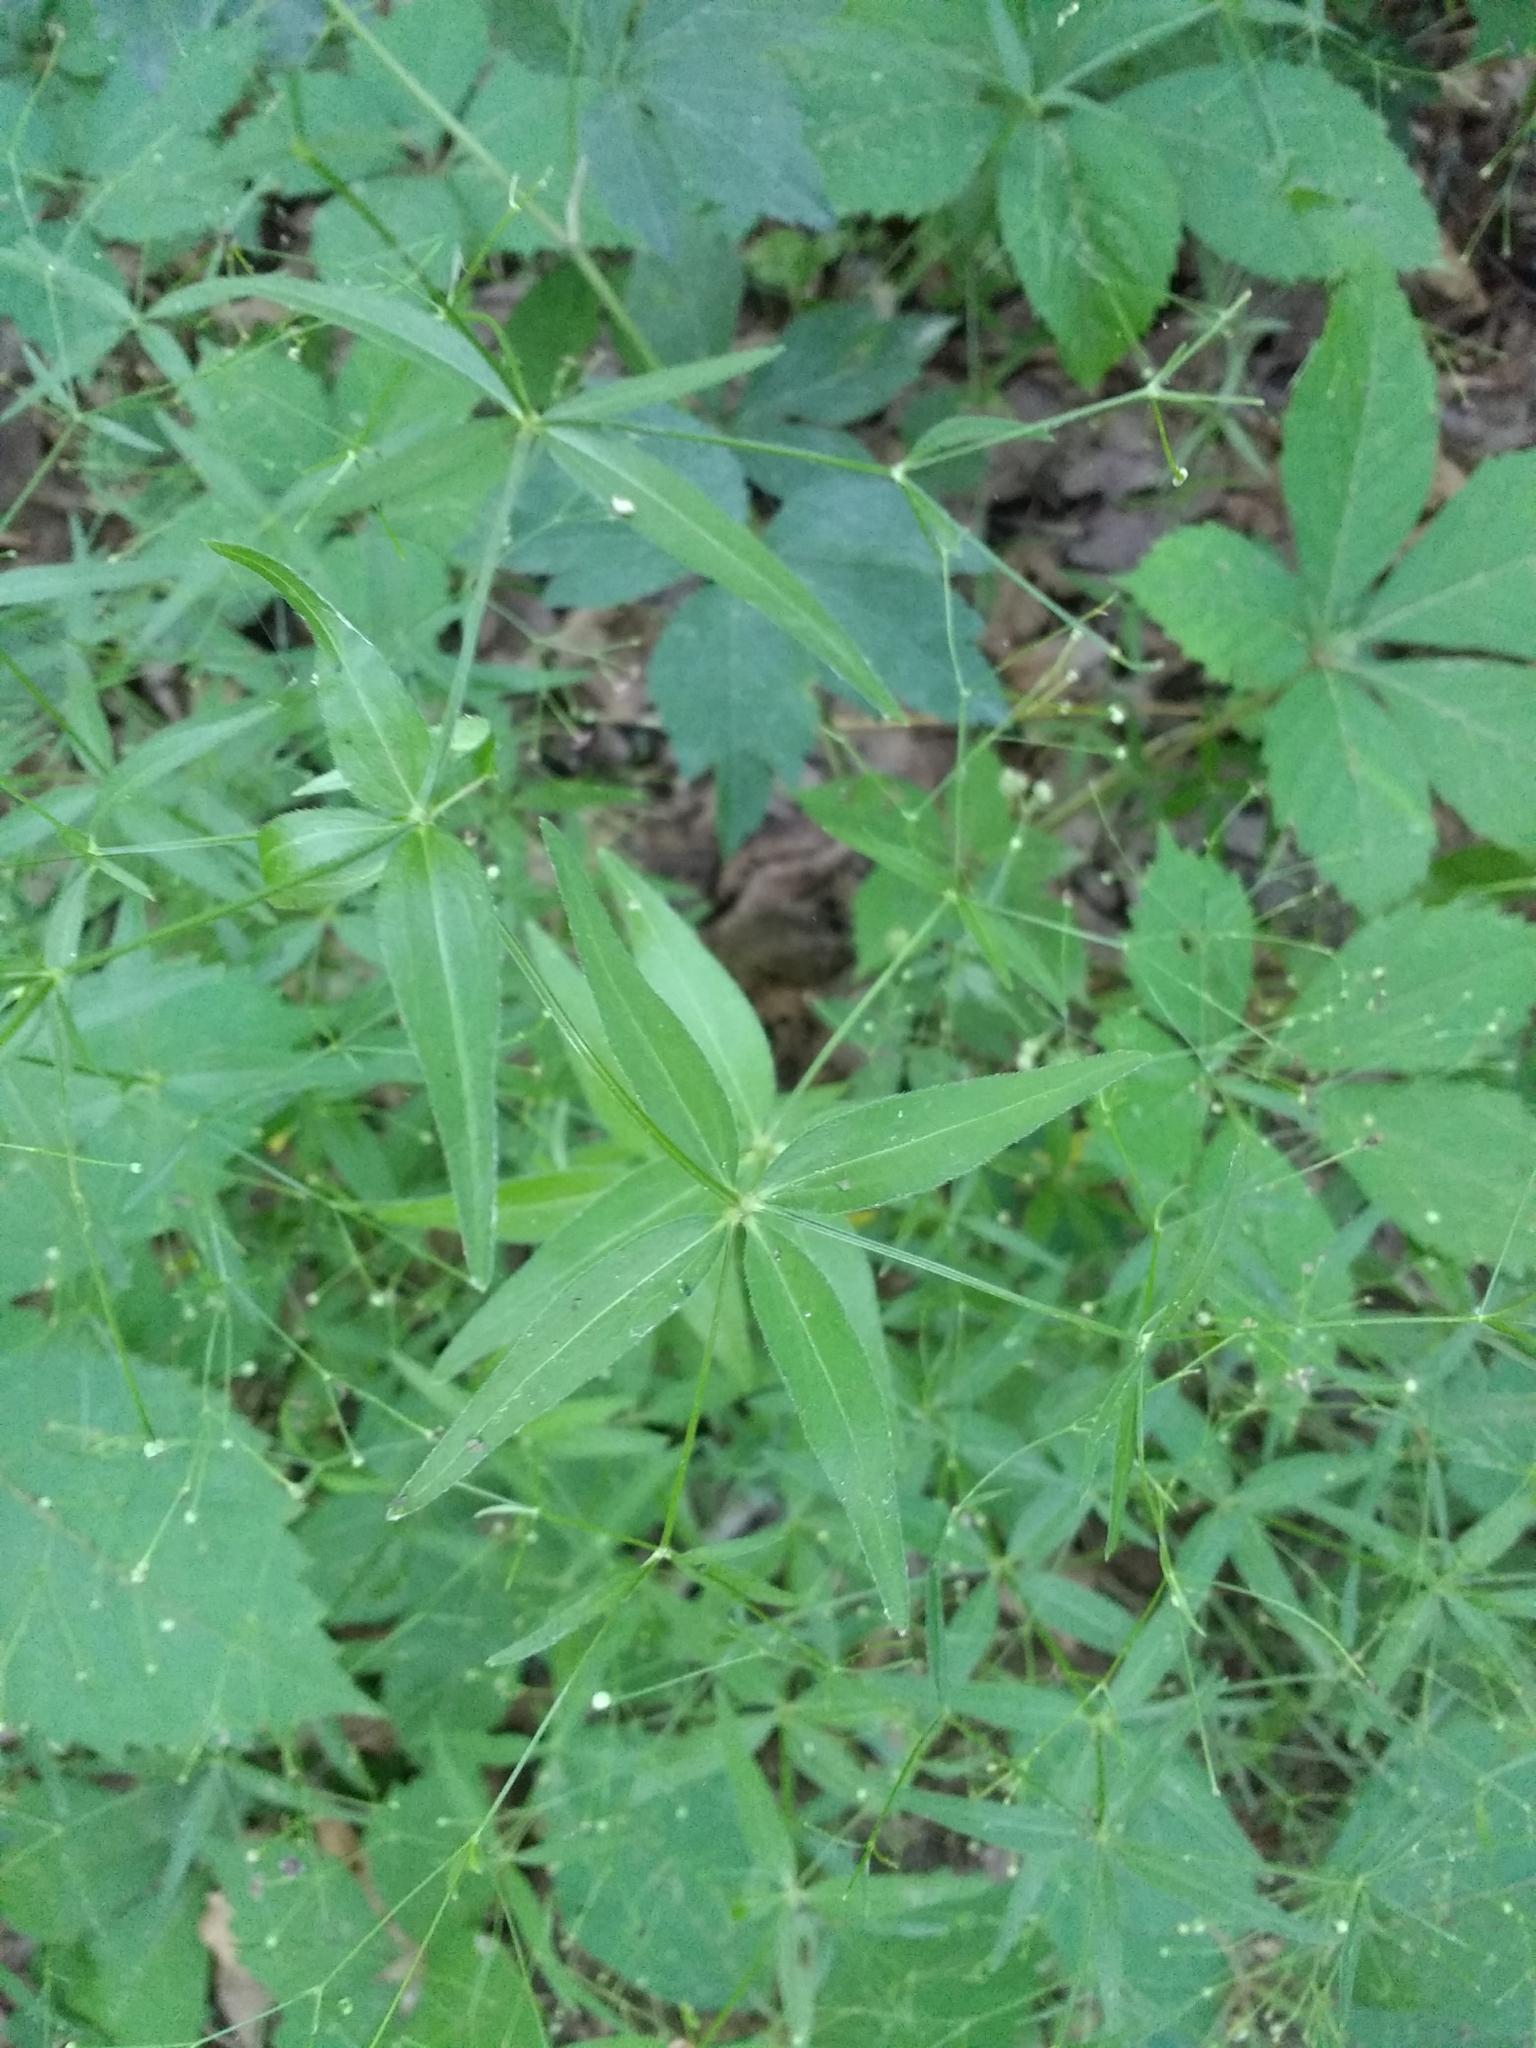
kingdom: Plantae
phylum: Tracheophyta
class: Magnoliopsida
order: Gentianales
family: Rubiaceae
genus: Galium
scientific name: Galium arkansanum
